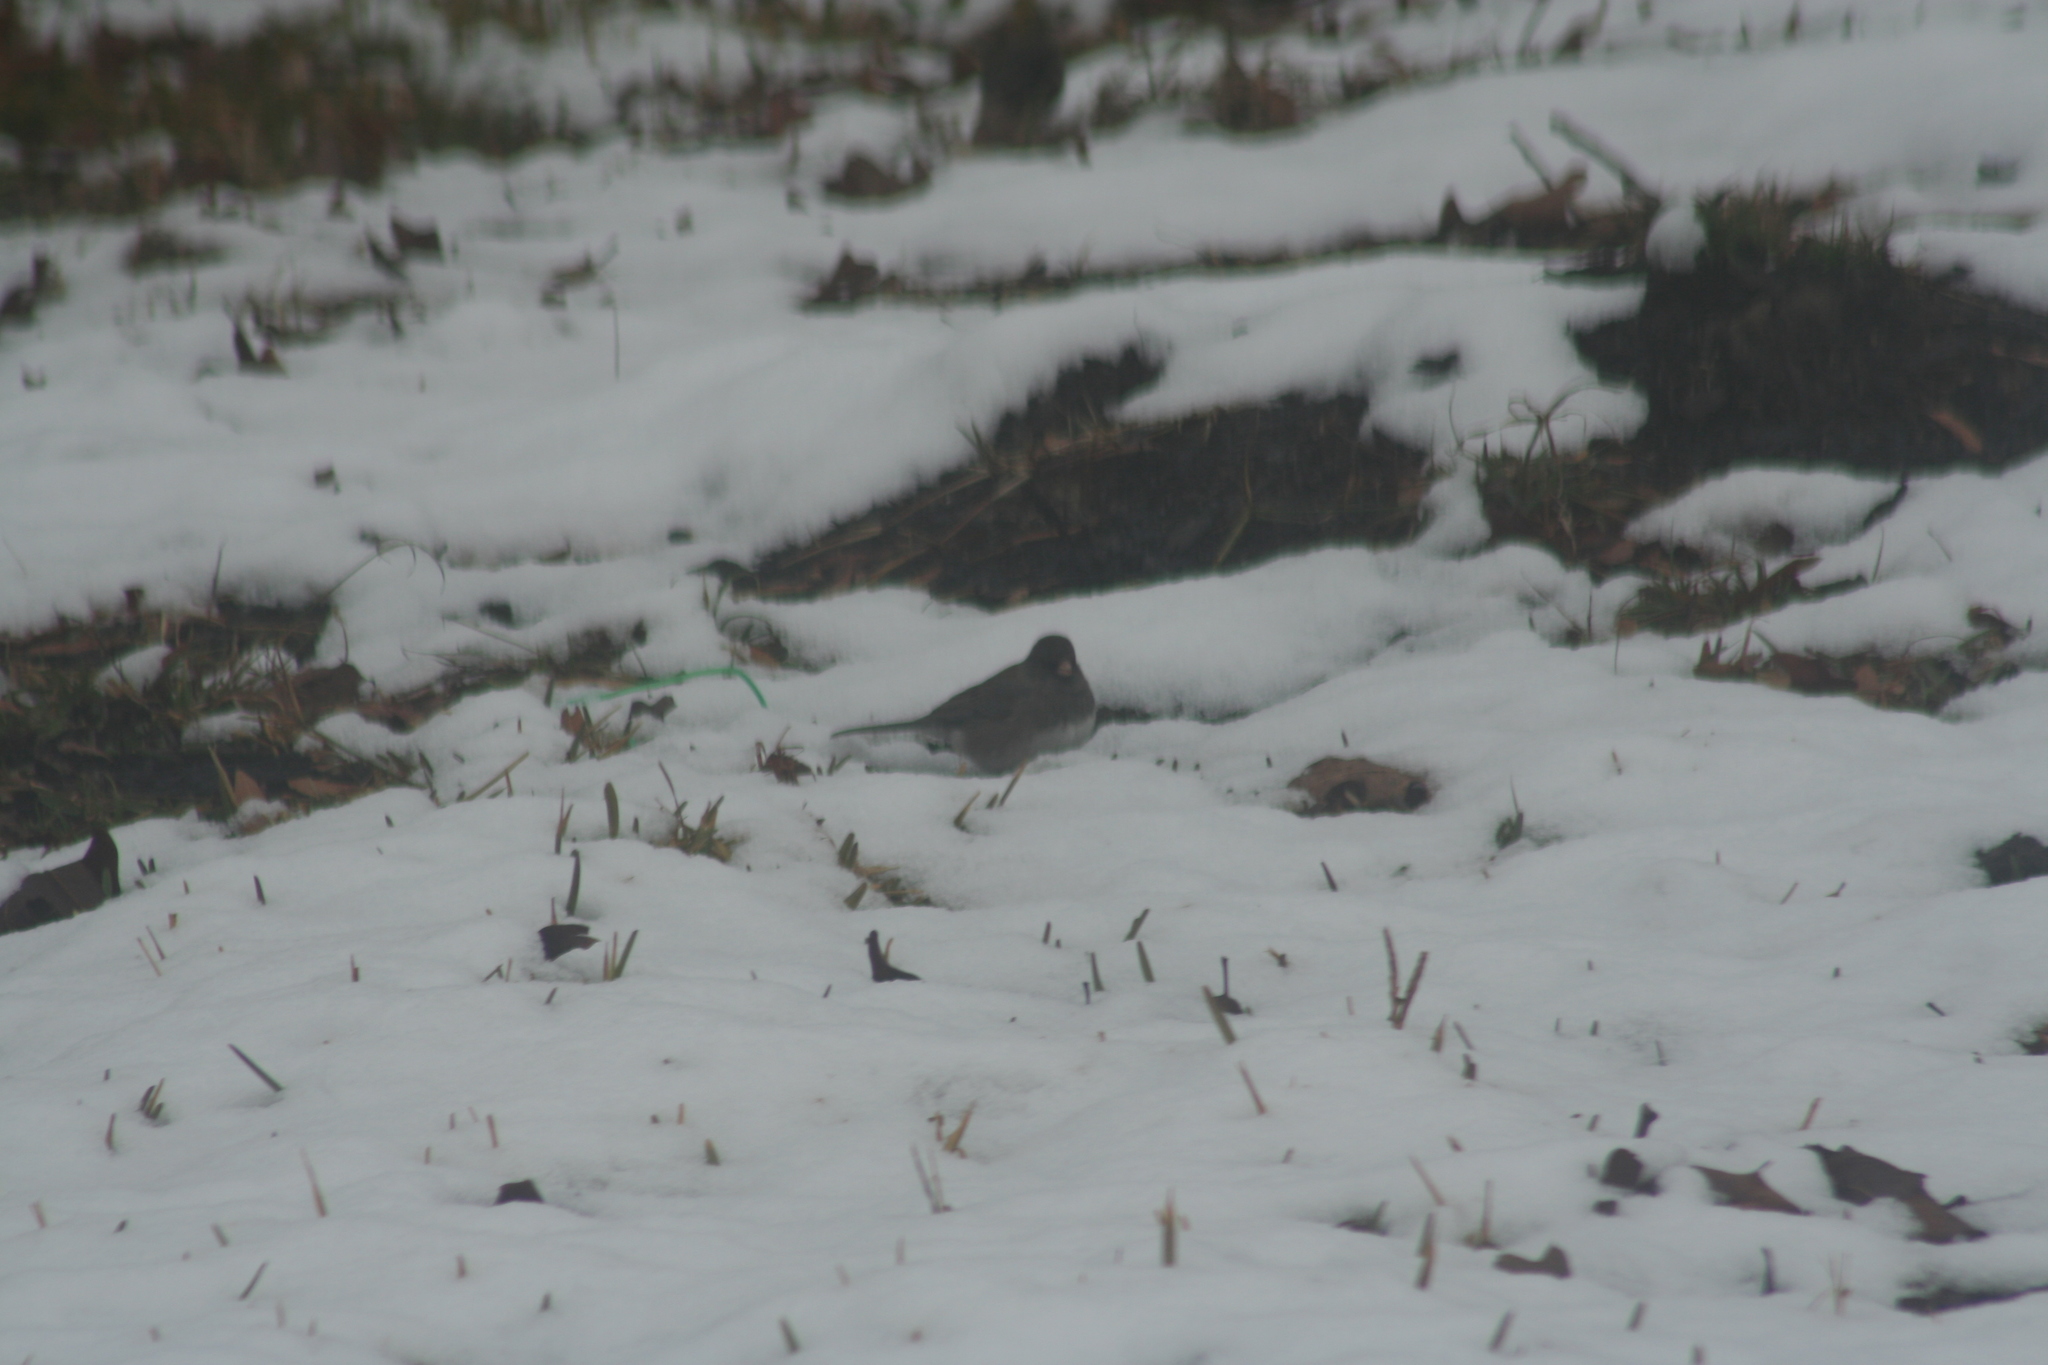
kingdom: Animalia
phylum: Chordata
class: Aves
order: Passeriformes
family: Passerellidae
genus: Junco
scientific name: Junco hyemalis
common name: Dark-eyed junco
